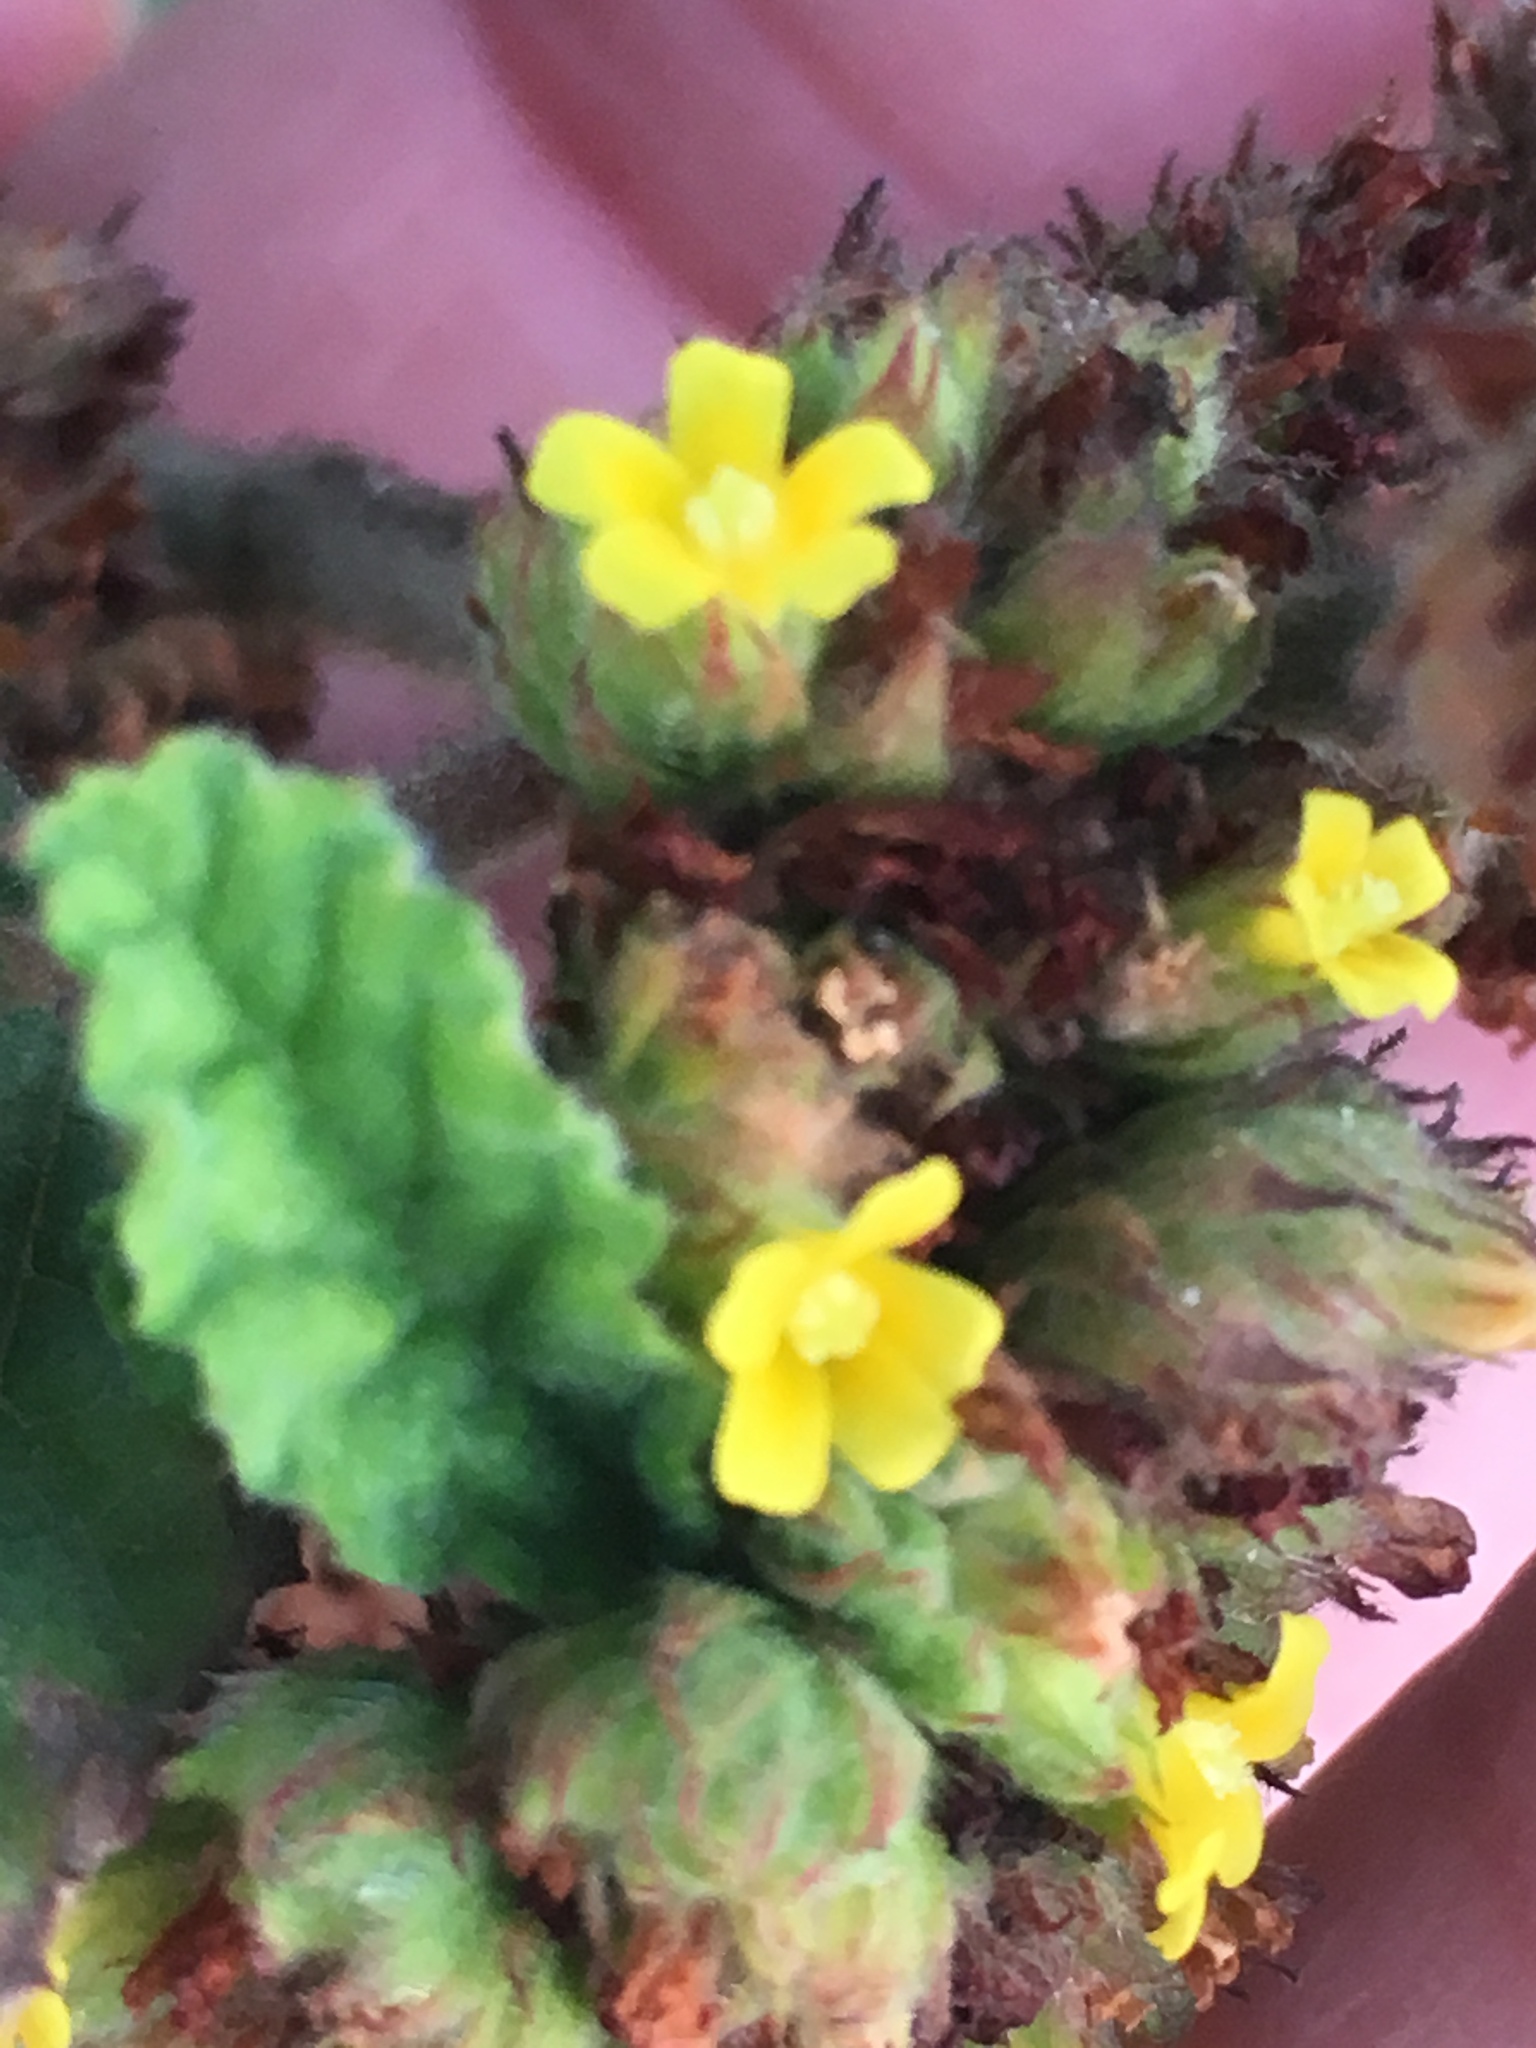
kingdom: Plantae
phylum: Tracheophyta
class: Magnoliopsida
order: Malvales
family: Malvaceae
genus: Waltheria
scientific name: Waltheria indica
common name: Leather-coat
